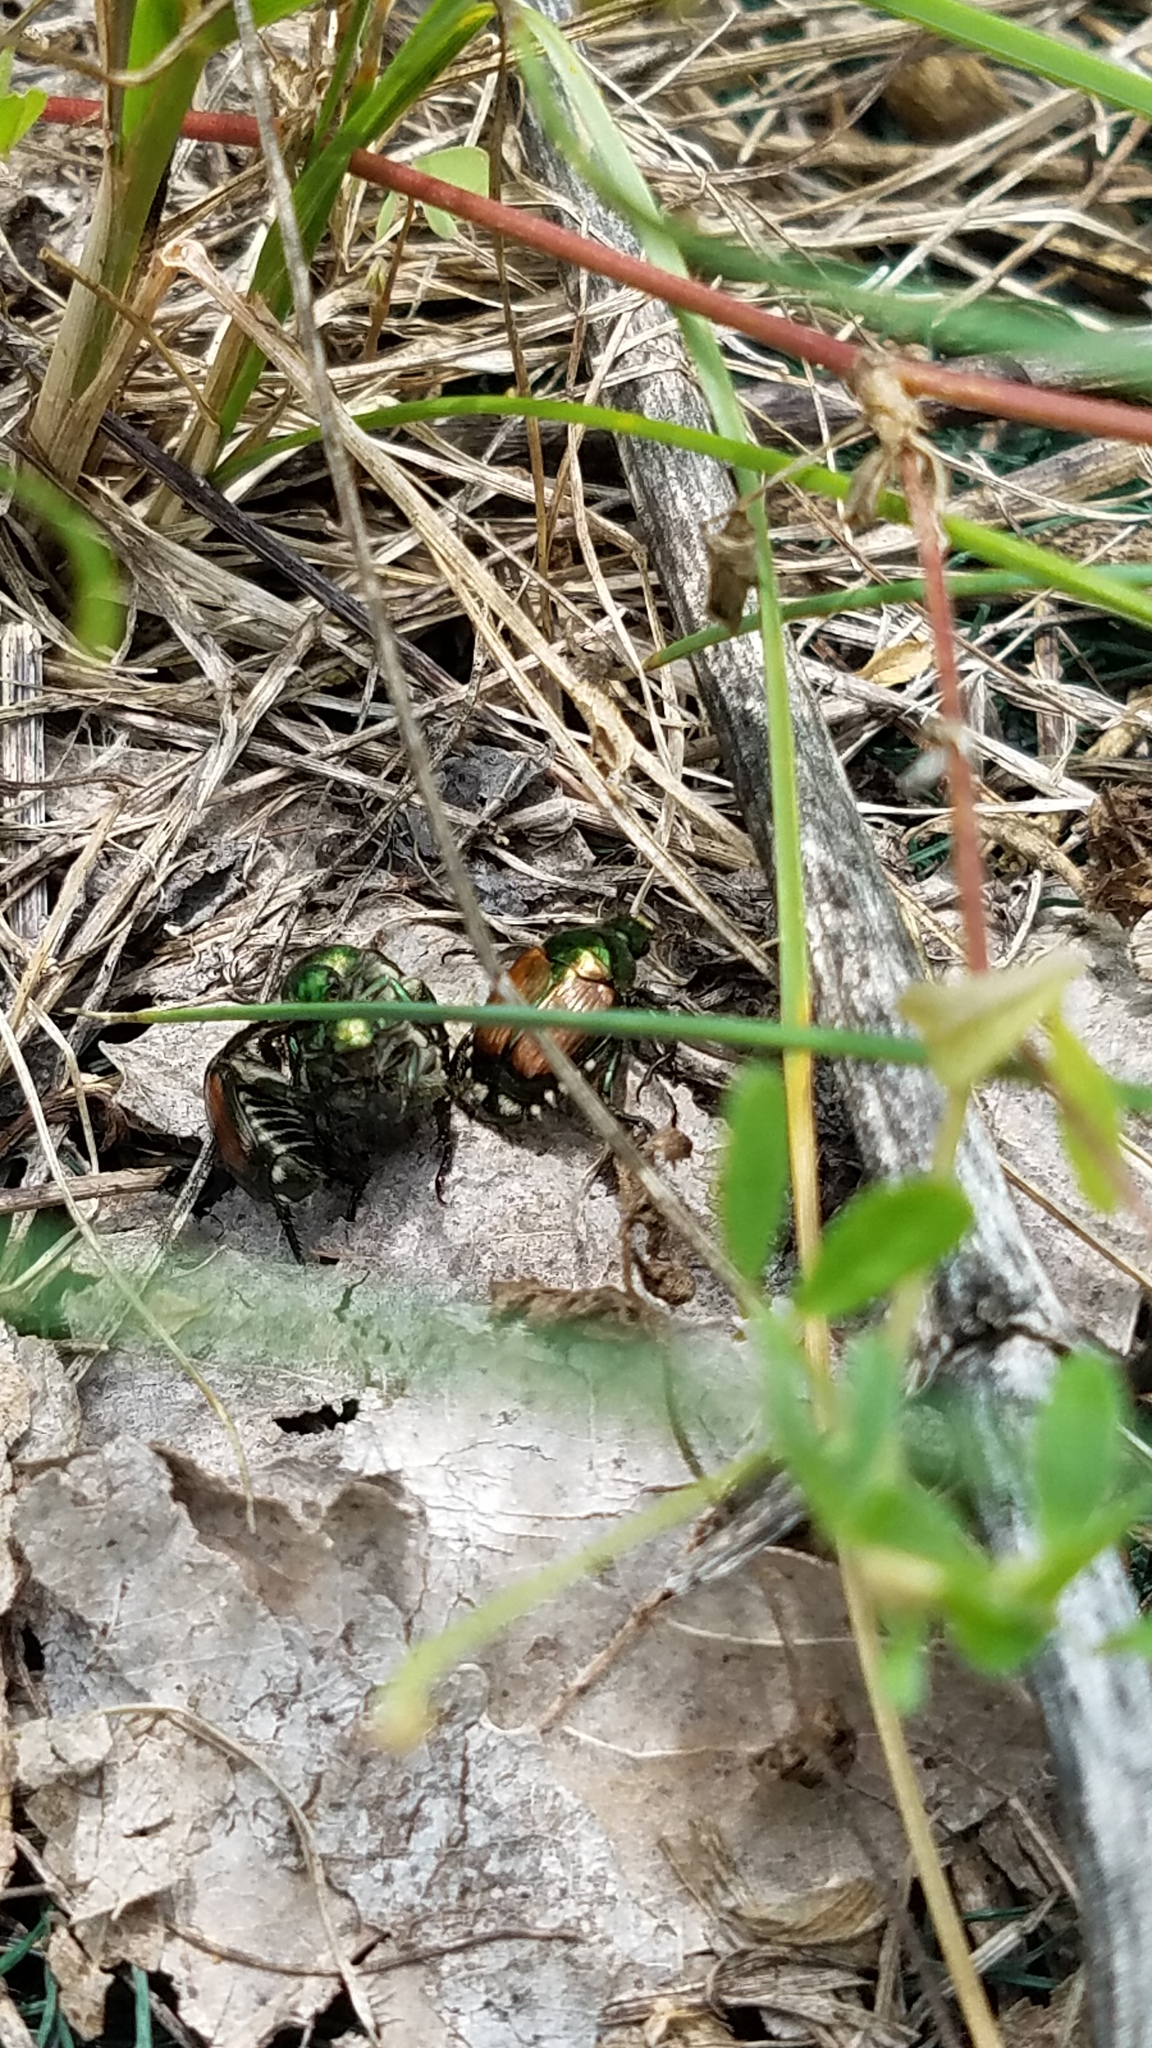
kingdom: Animalia
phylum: Arthropoda
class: Insecta
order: Coleoptera
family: Scarabaeidae
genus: Popillia
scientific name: Popillia japonica
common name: Japanese beetle
